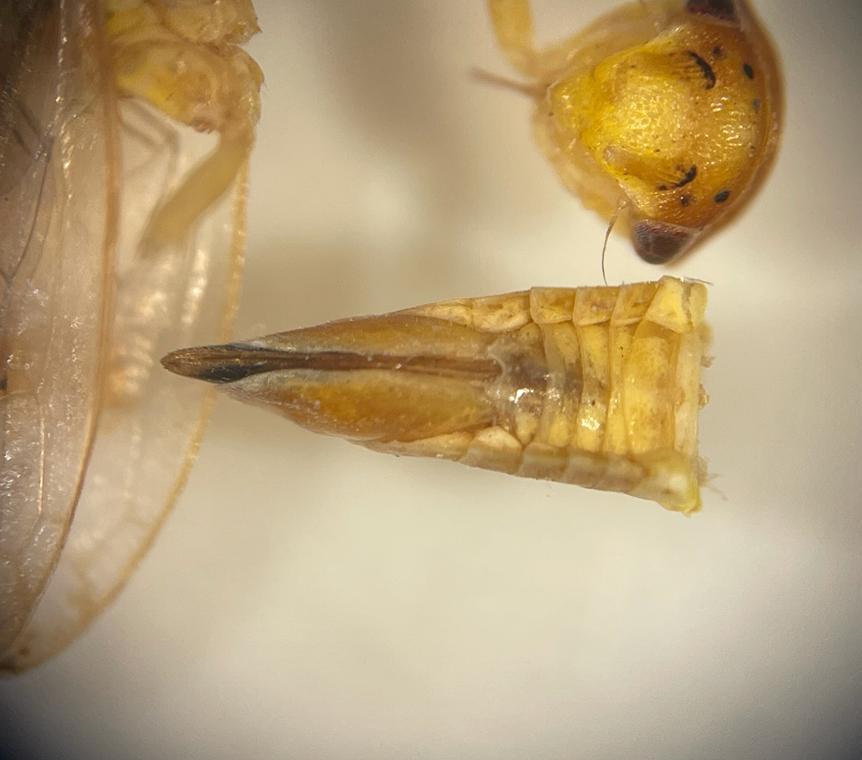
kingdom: Animalia
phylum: Arthropoda
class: Insecta
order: Hemiptera
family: Cicadellidae
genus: Oncopsis
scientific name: Oncopsis carpini
